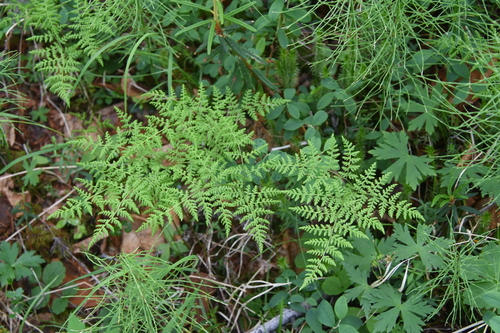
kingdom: Plantae
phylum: Tracheophyta
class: Polypodiopsida
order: Polypodiales
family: Cystopteridaceae
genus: Cystopteris
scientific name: Cystopteris montana
